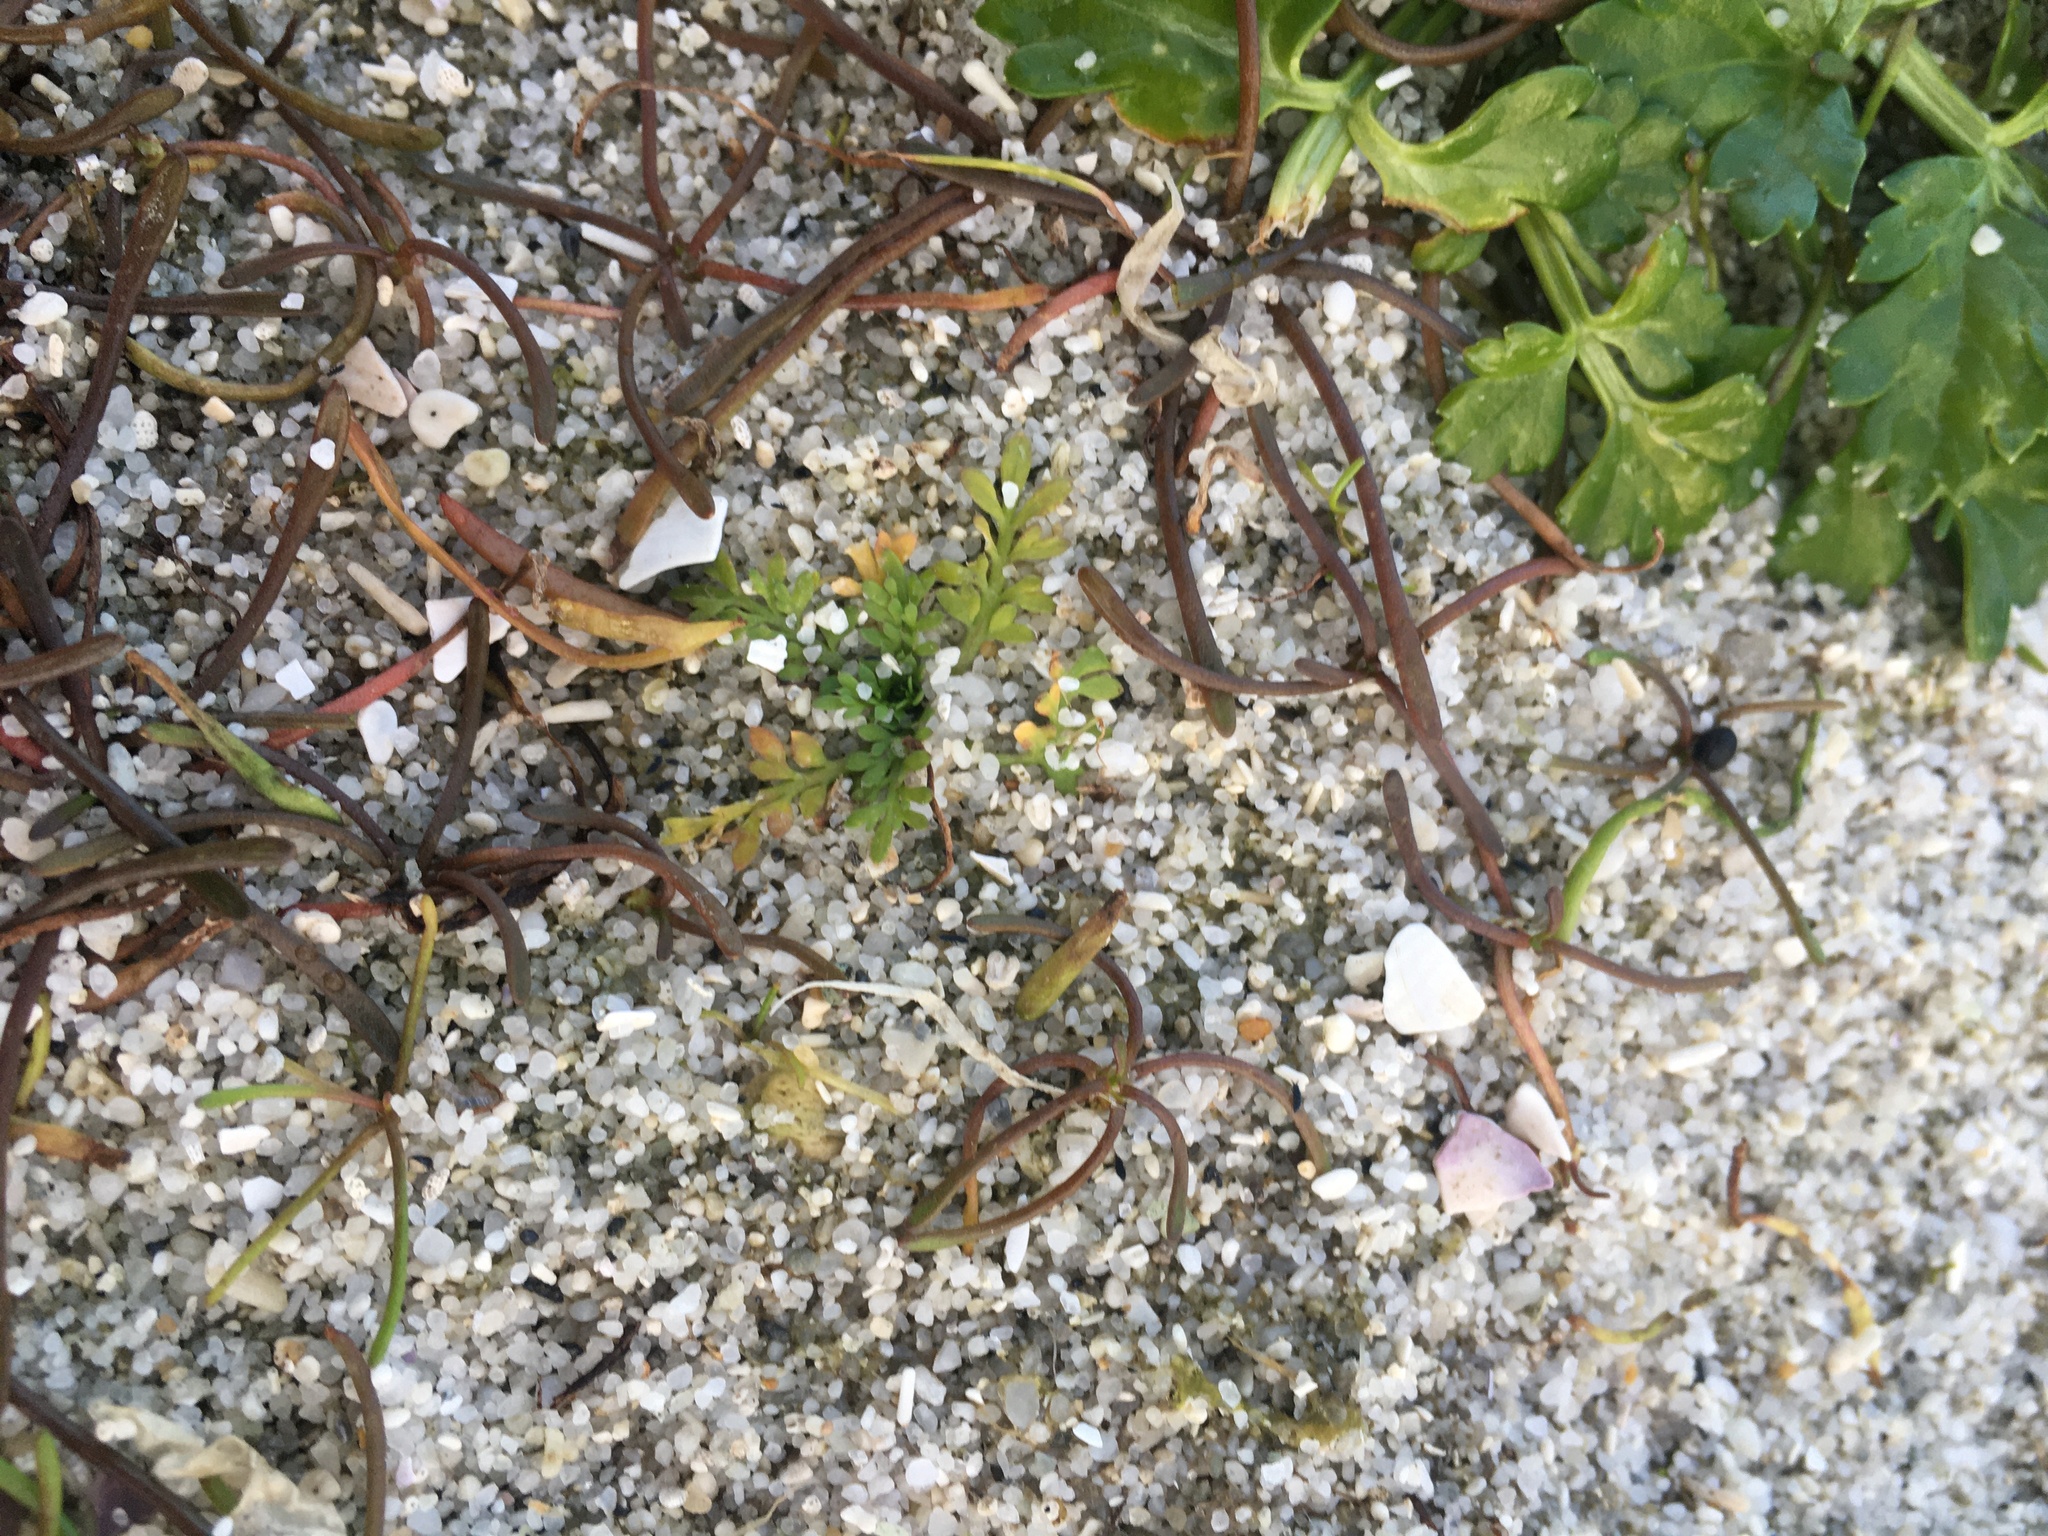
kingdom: Plantae
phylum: Tracheophyta
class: Magnoliopsida
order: Lamiales
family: Scrophulariaceae
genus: Limosella
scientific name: Limosella australis
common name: Welsh mudwort
